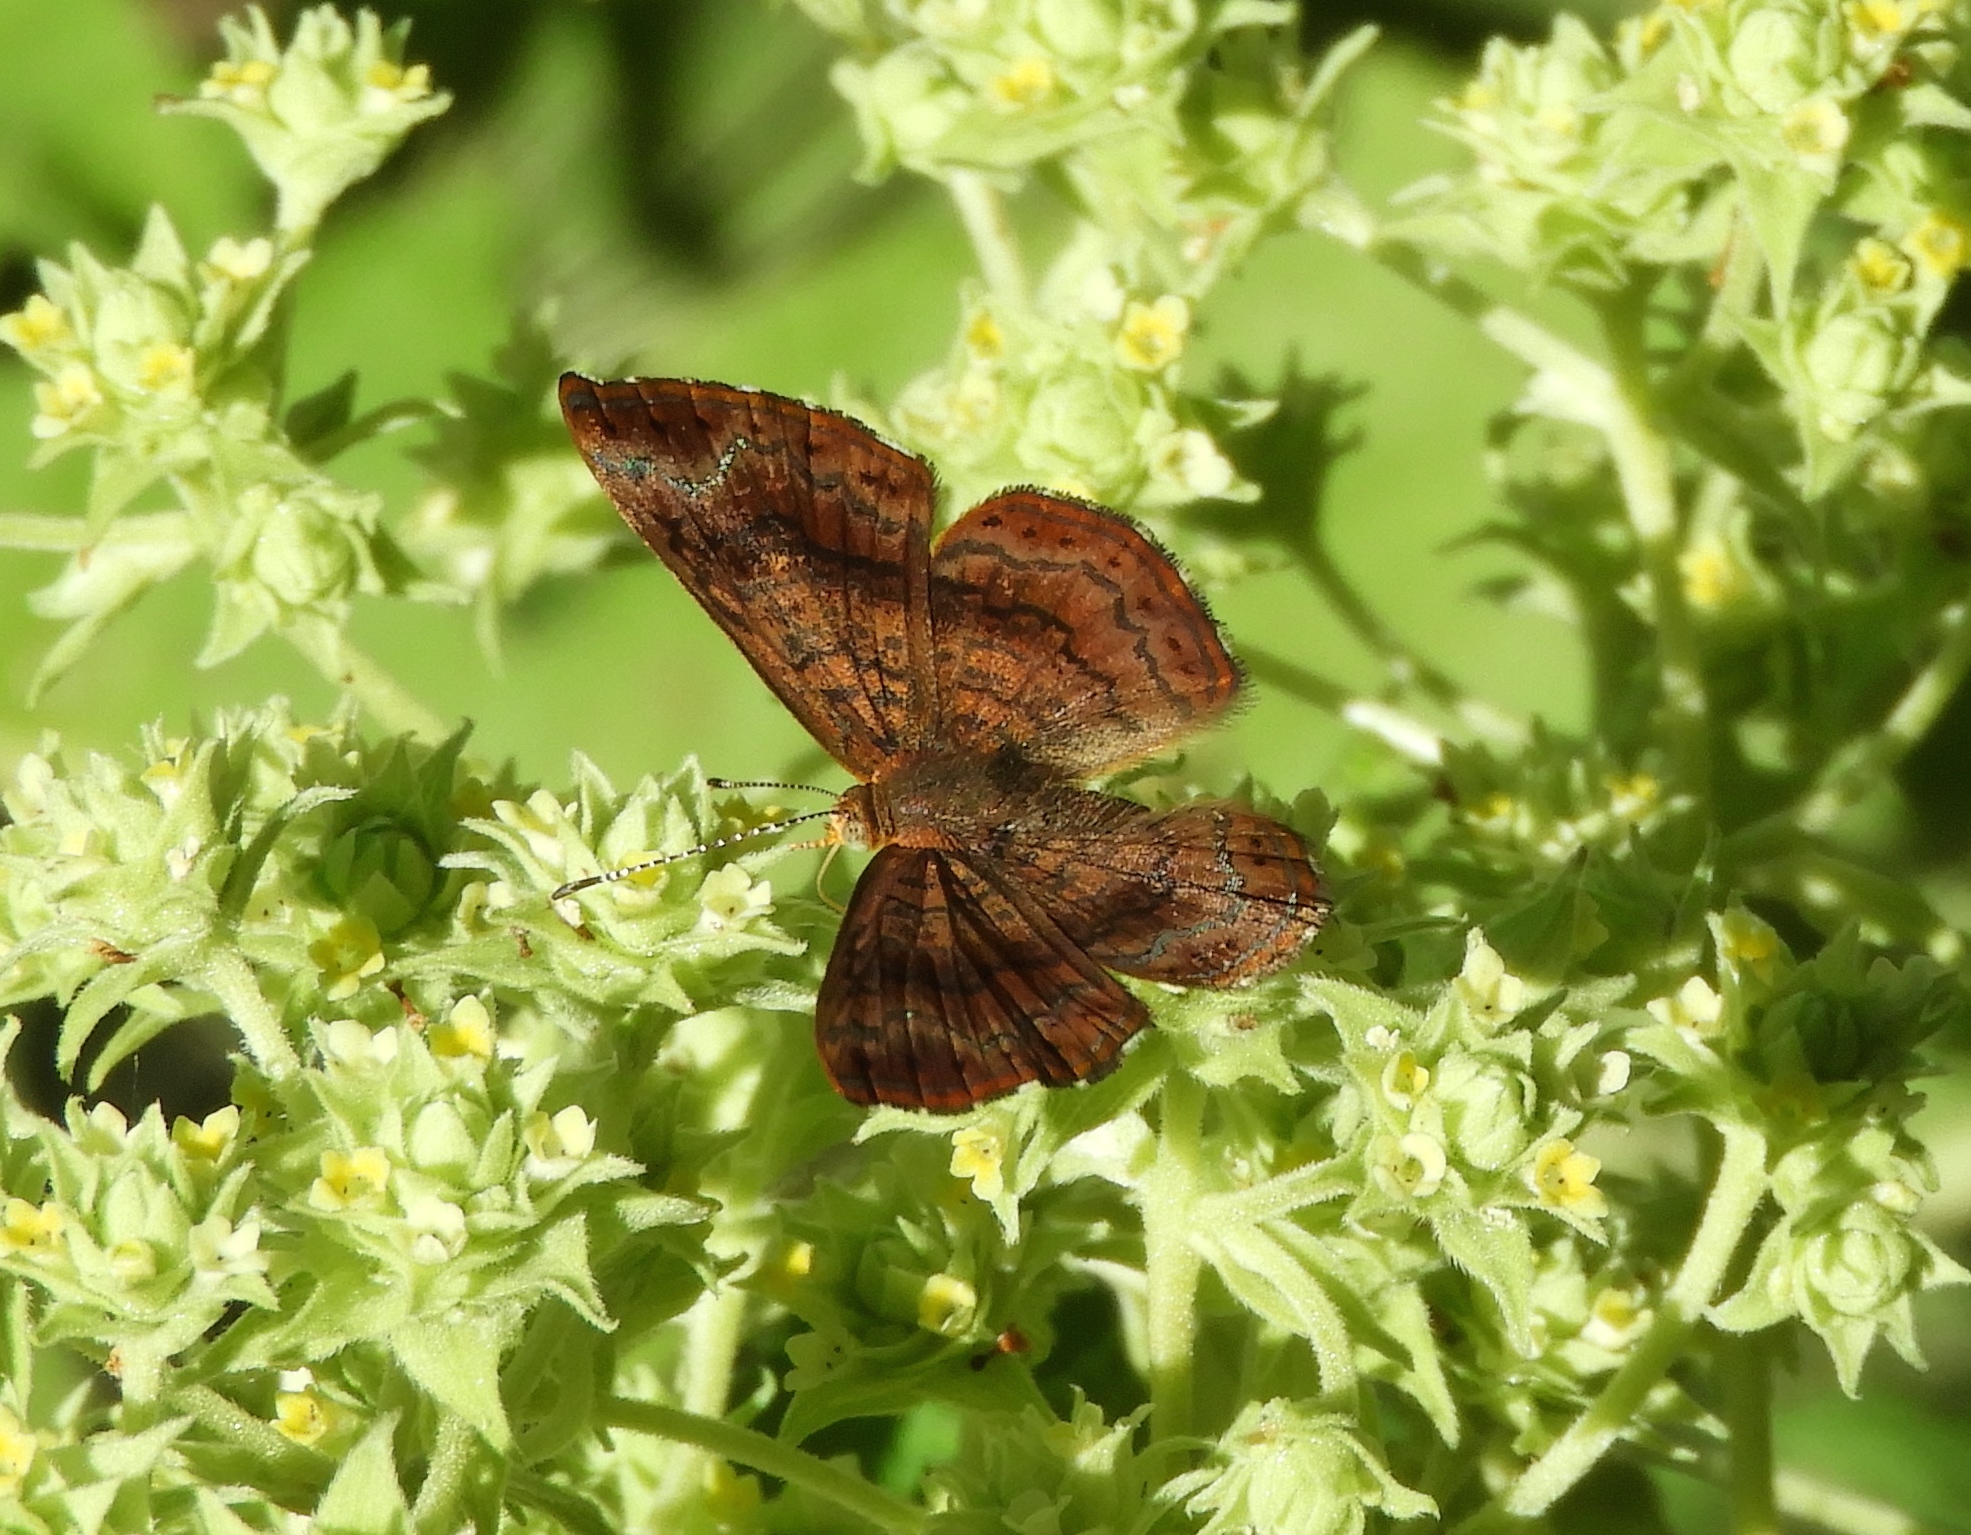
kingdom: Animalia
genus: Calephelis
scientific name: Calephelis
